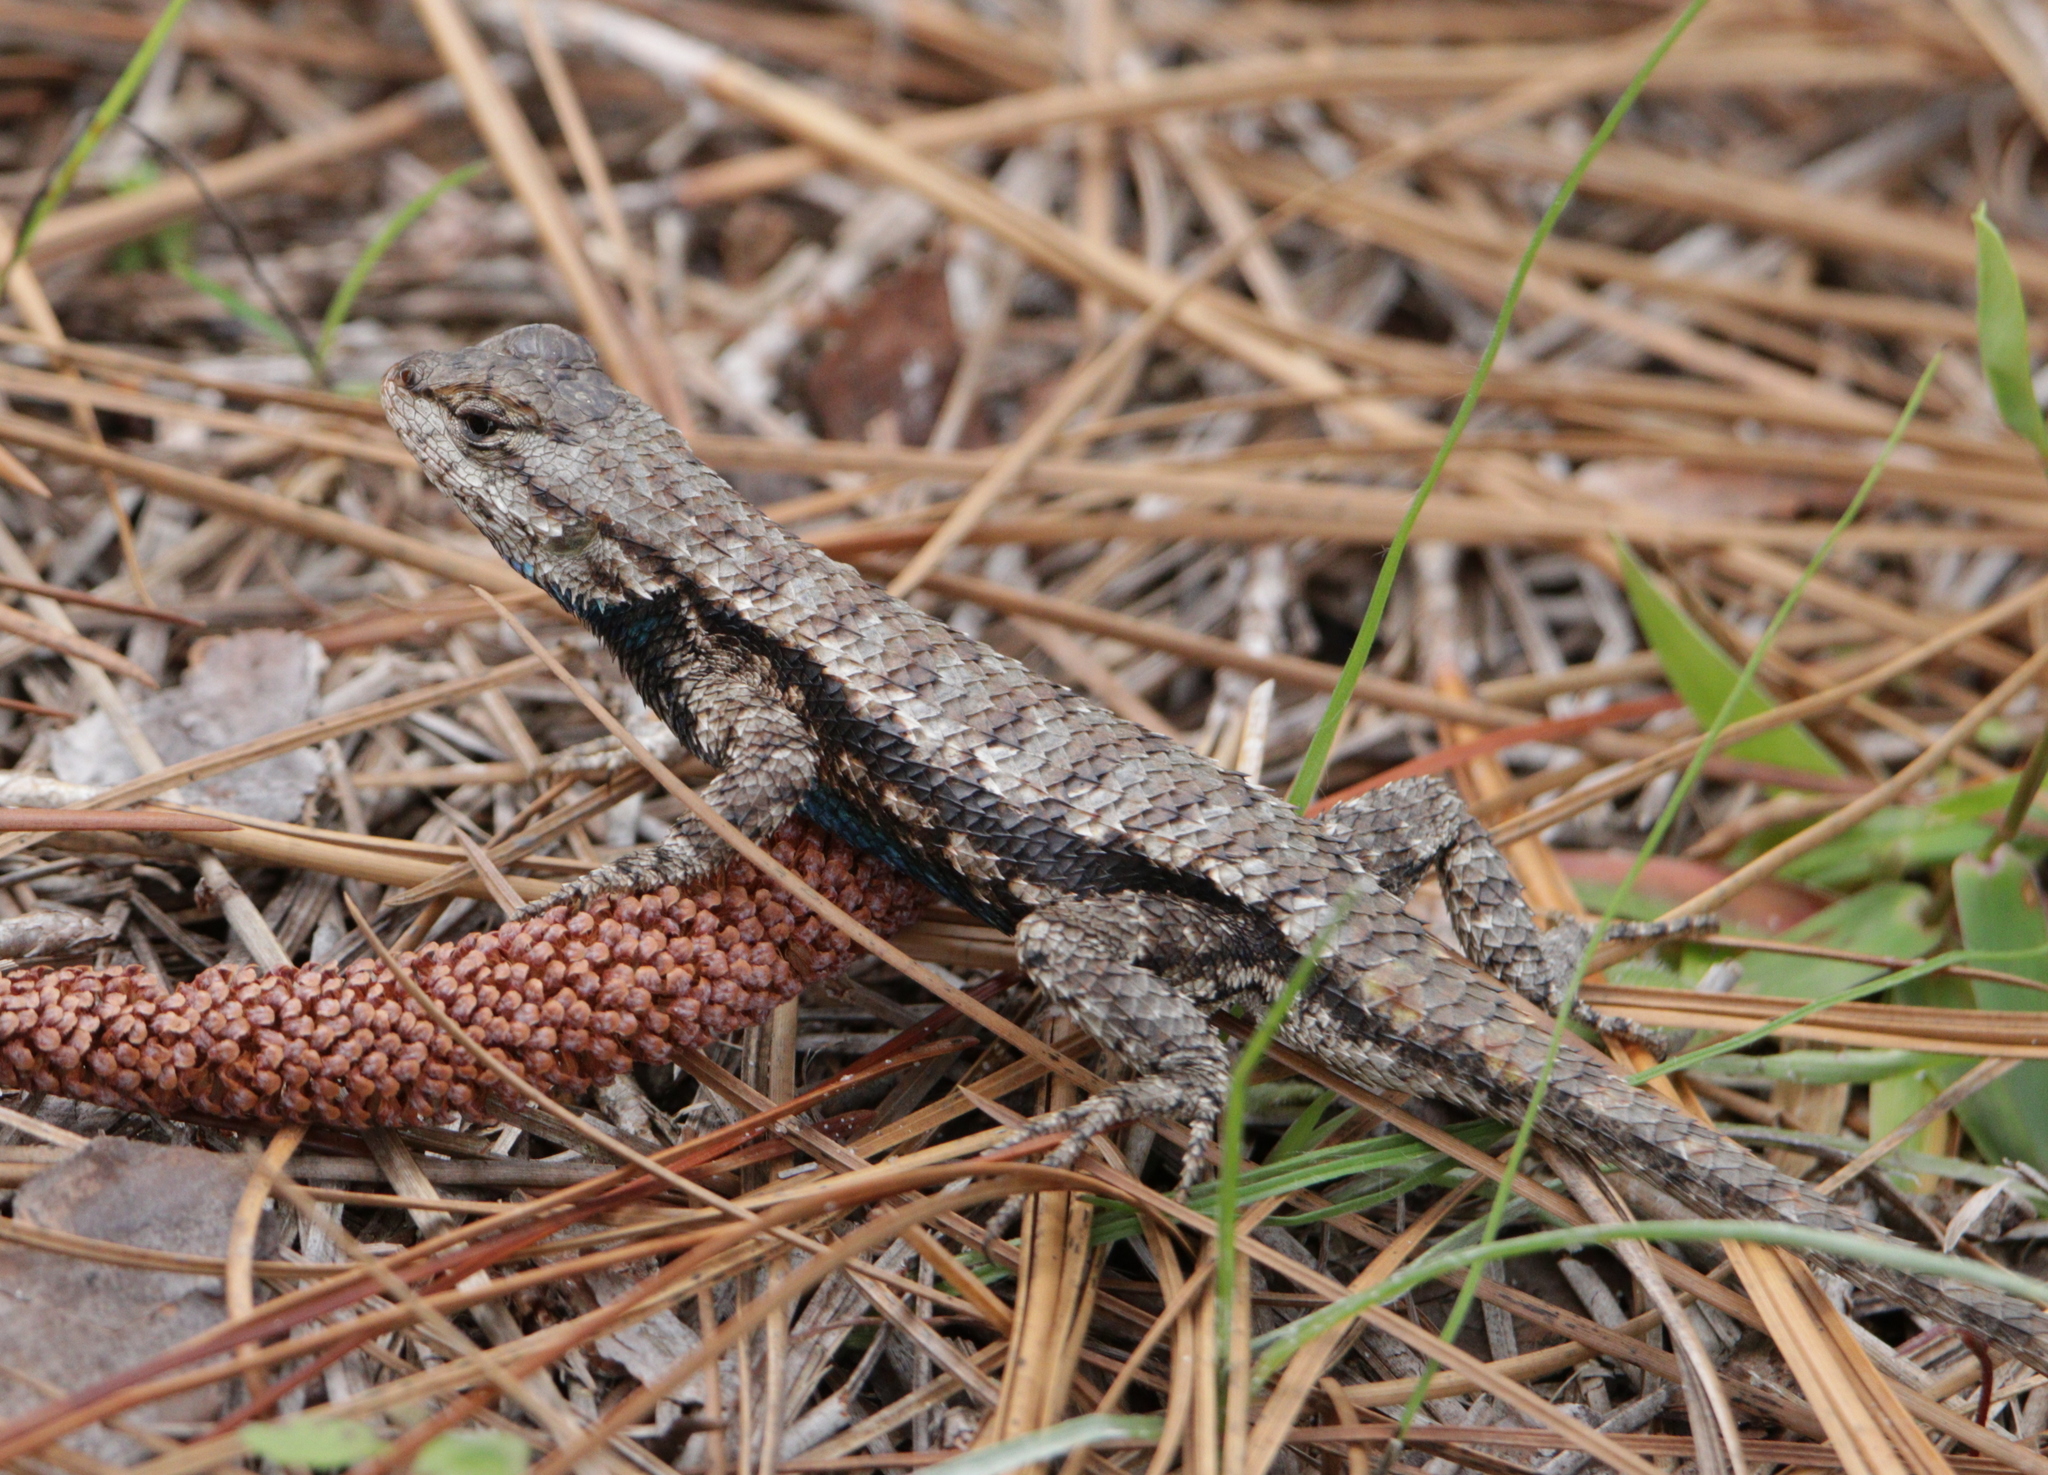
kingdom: Animalia
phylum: Chordata
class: Squamata
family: Phrynosomatidae
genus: Sceloporus
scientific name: Sceloporus undulatus
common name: Eastern fence lizard
